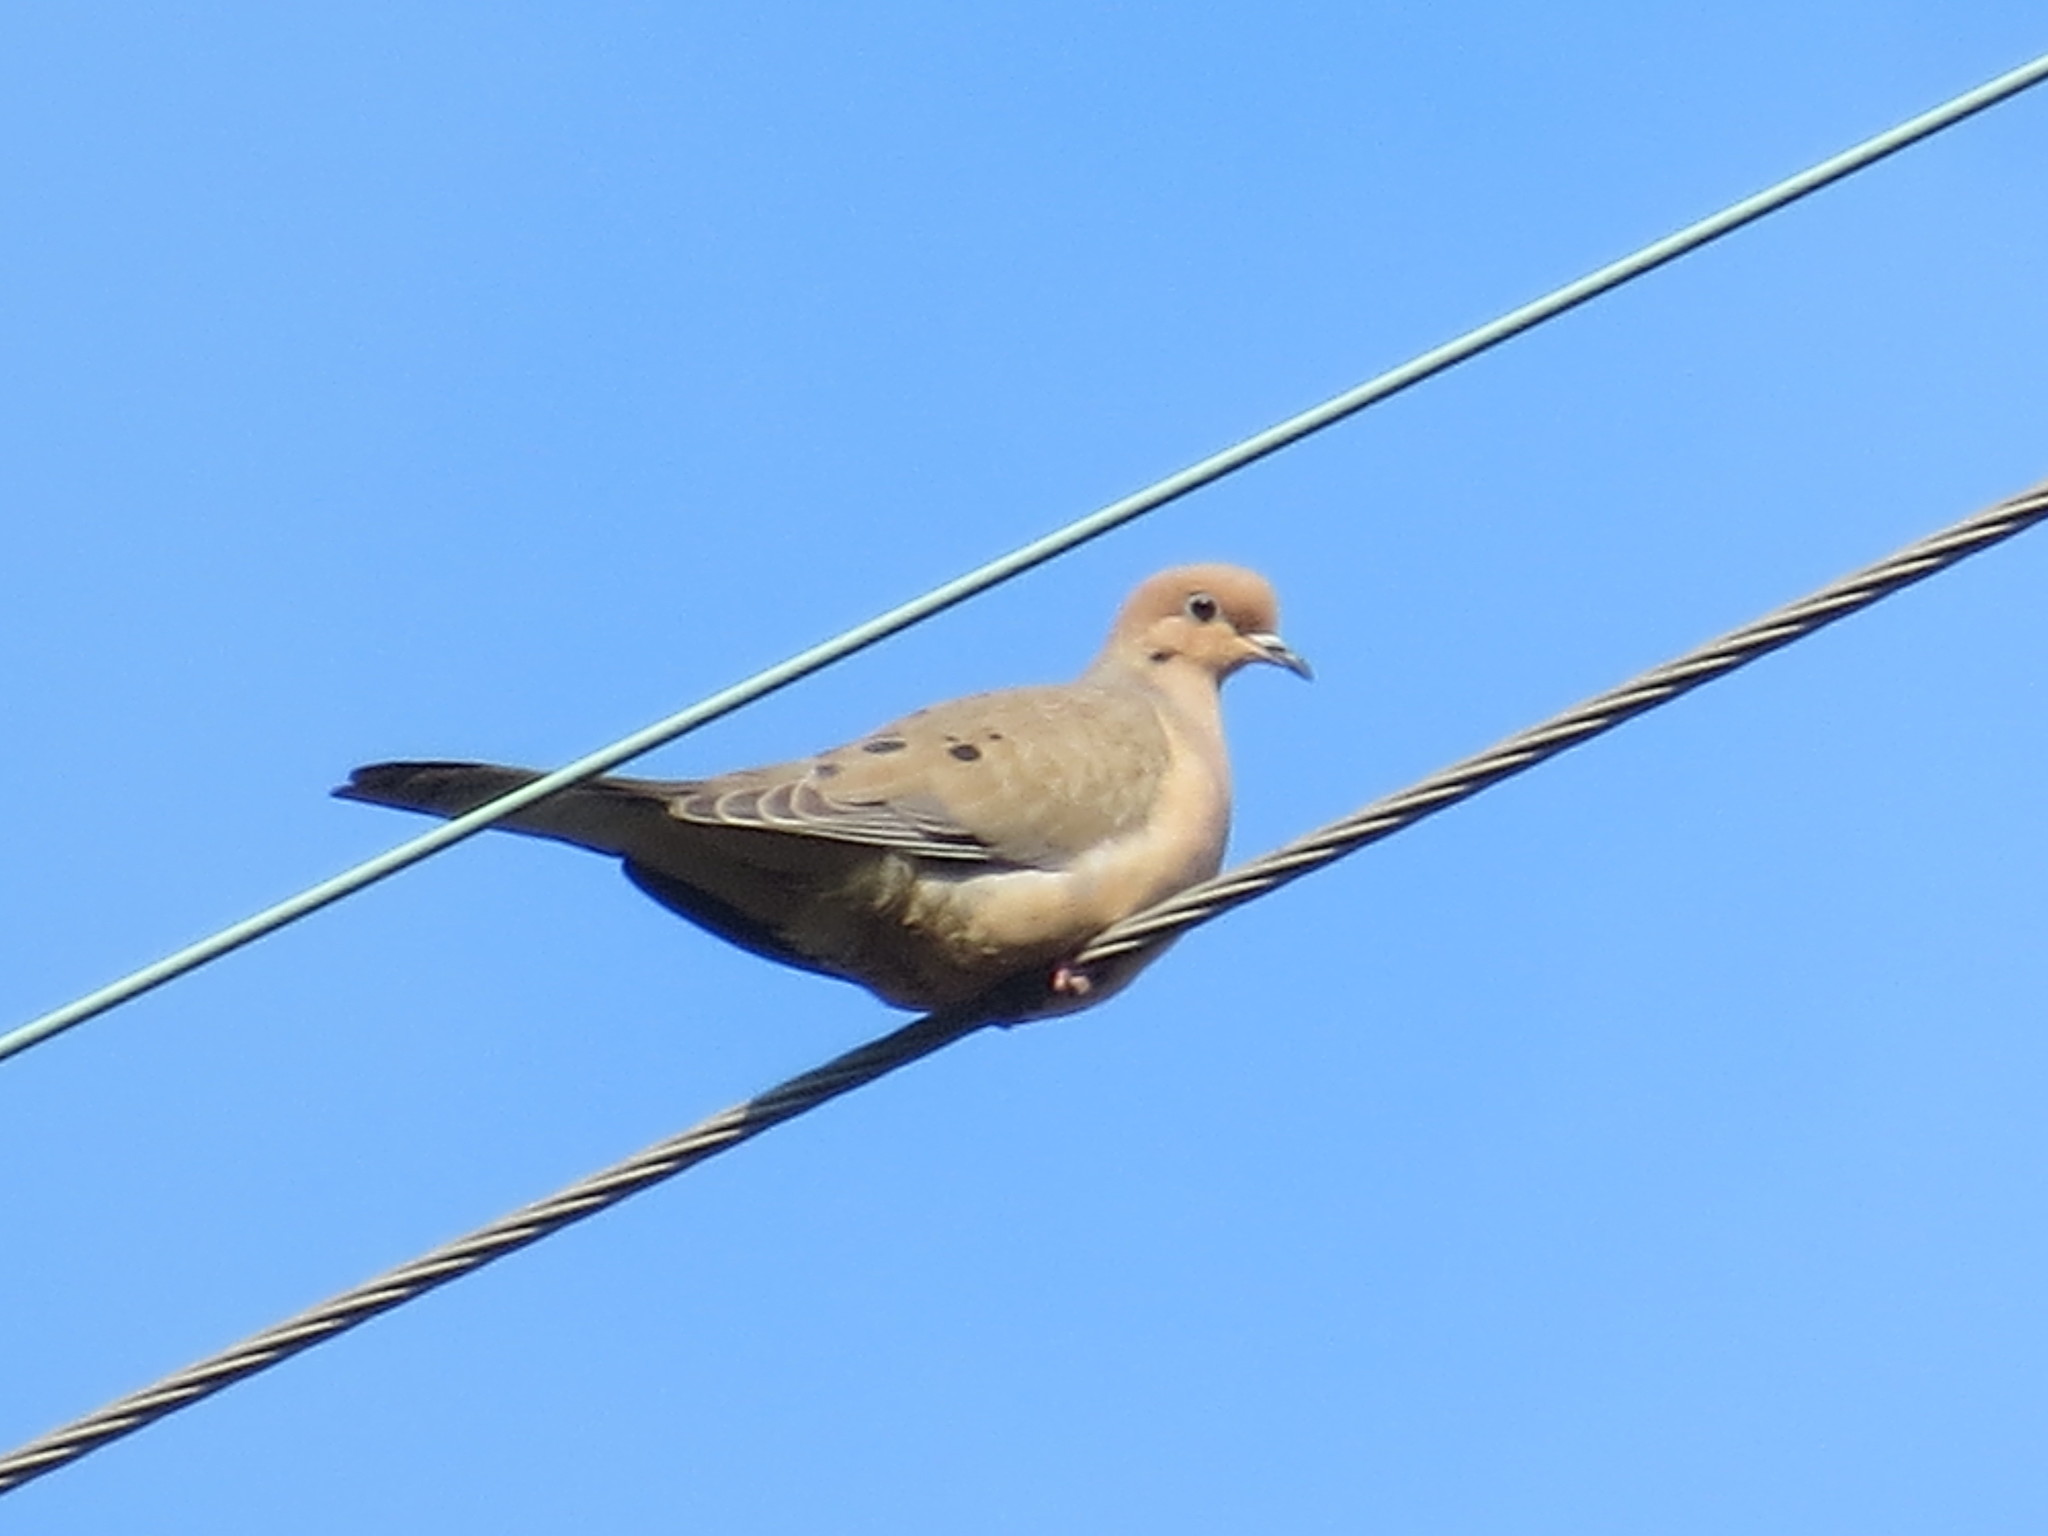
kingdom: Animalia
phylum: Chordata
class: Aves
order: Columbiformes
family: Columbidae
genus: Zenaida
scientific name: Zenaida macroura
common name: Mourning dove
